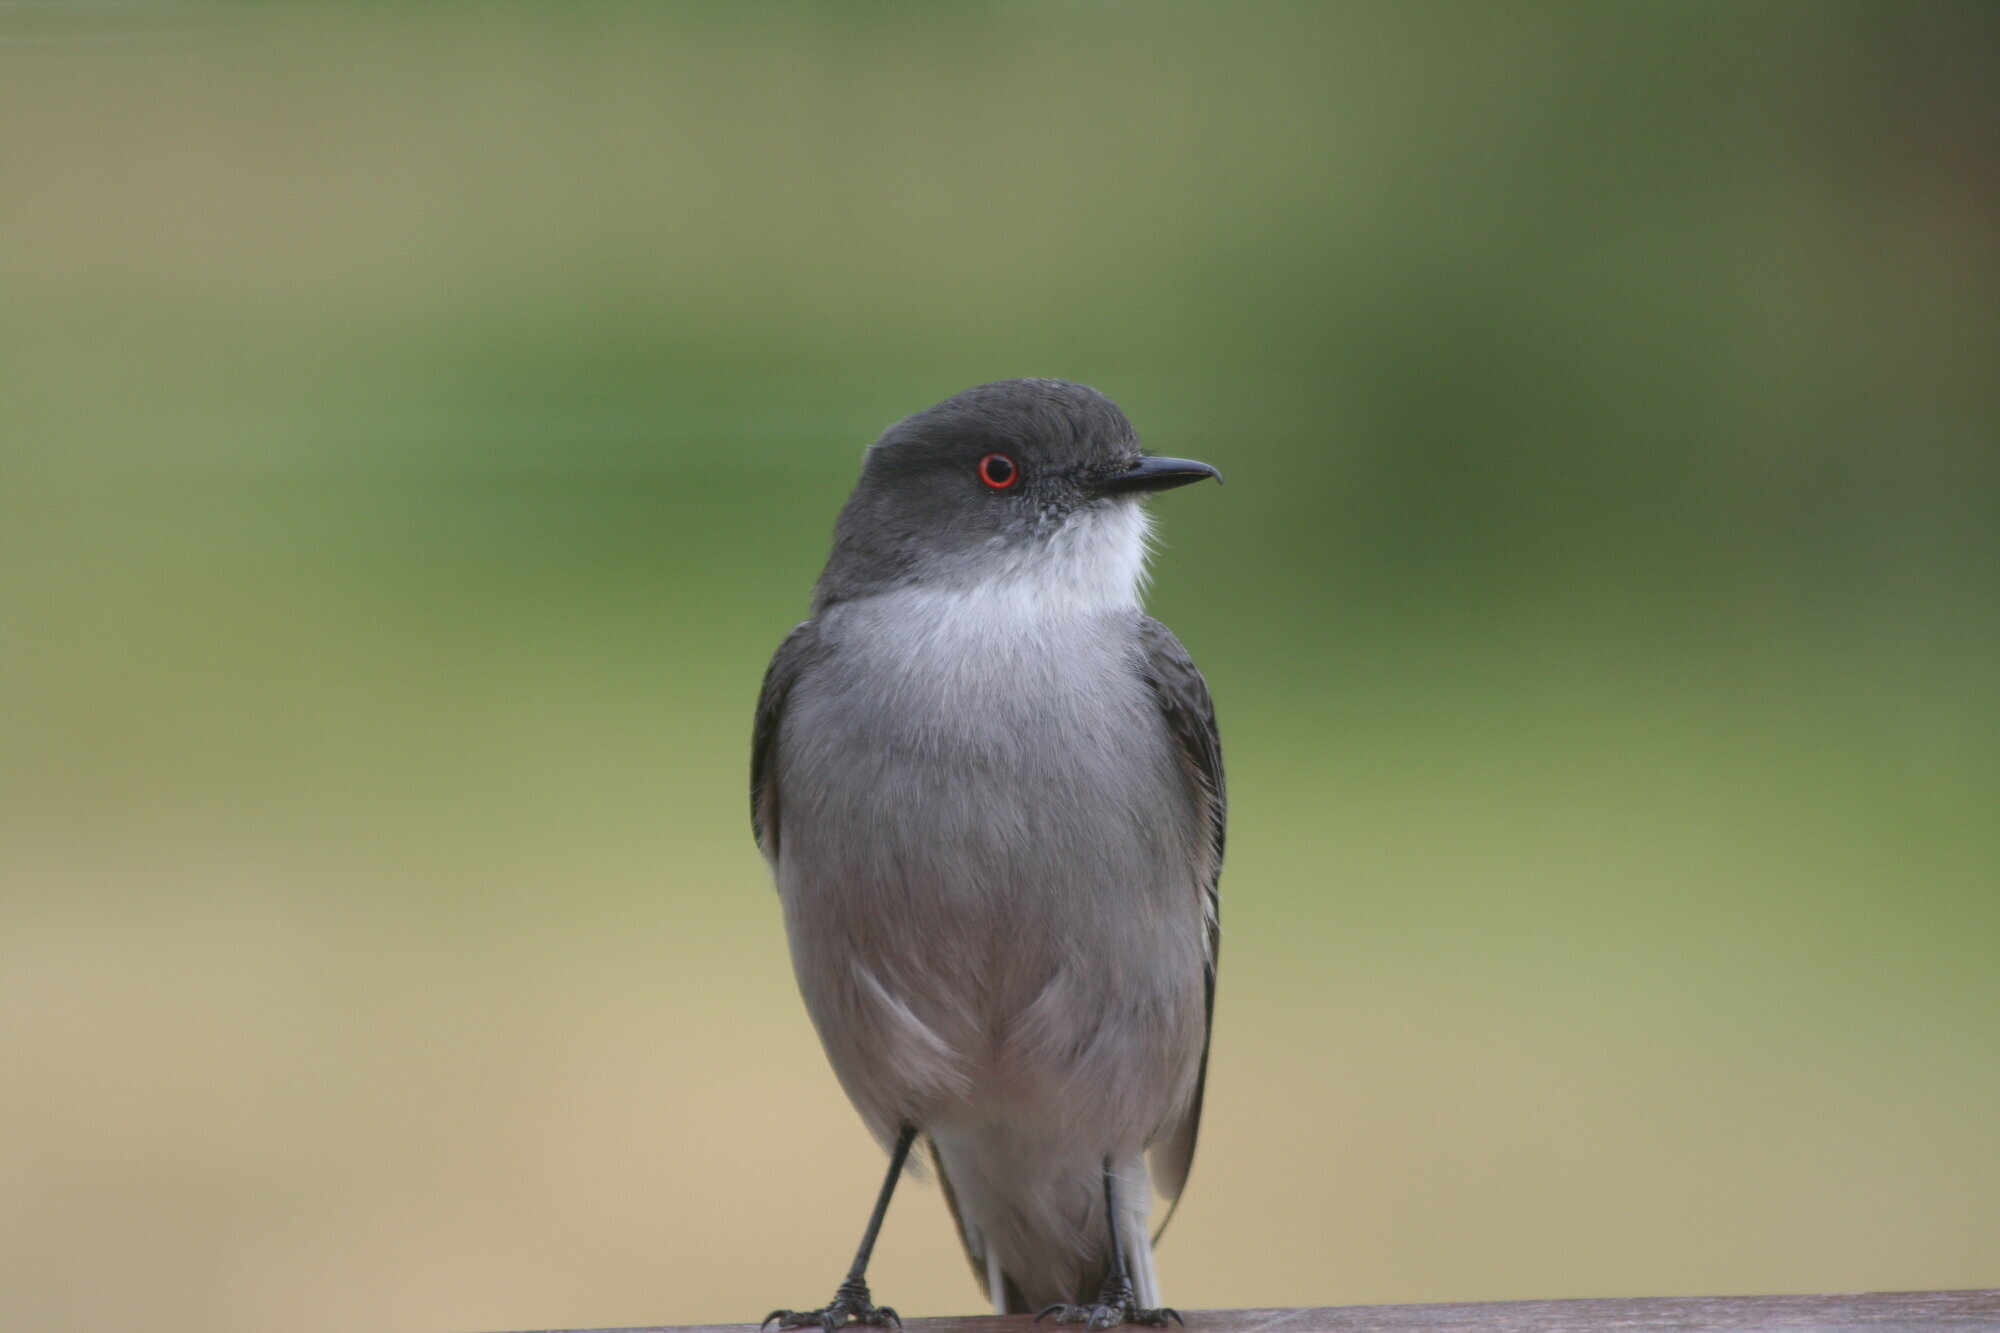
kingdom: Animalia
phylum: Chordata
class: Aves
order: Passeriformes
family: Tyrannidae
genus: Xolmis
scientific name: Xolmis pyrope
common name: Fire-eyed diucon
